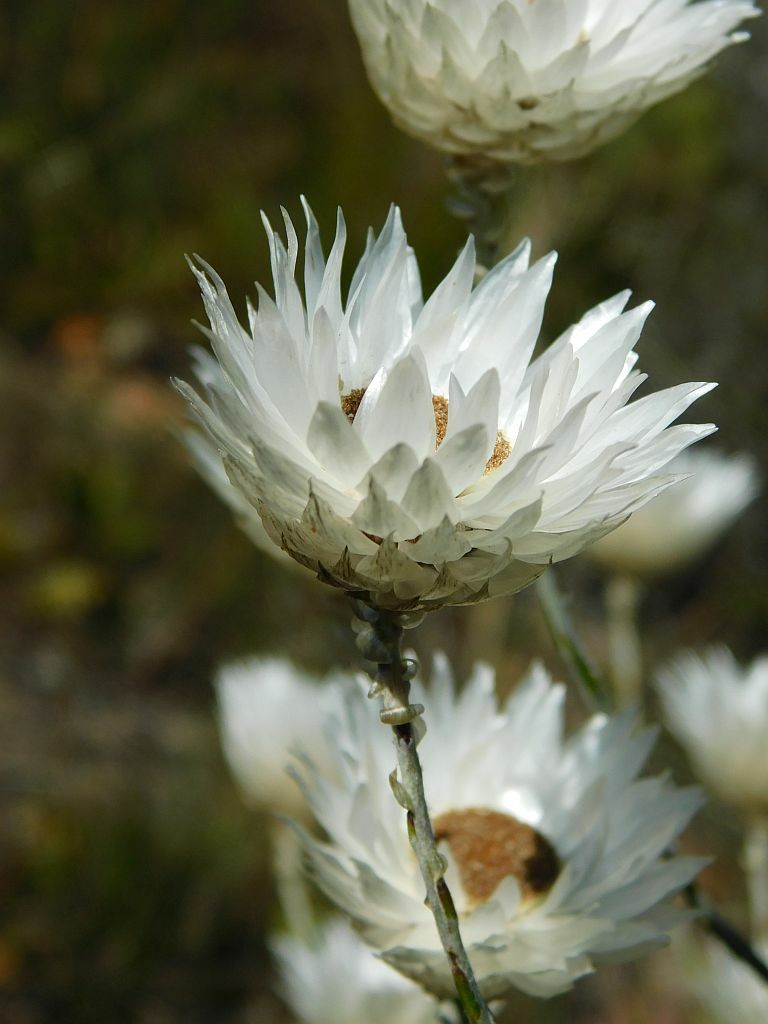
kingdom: Plantae
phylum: Tracheophyta
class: Magnoliopsida
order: Asterales
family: Asteraceae
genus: Edmondia
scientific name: Edmondia sesamoides
